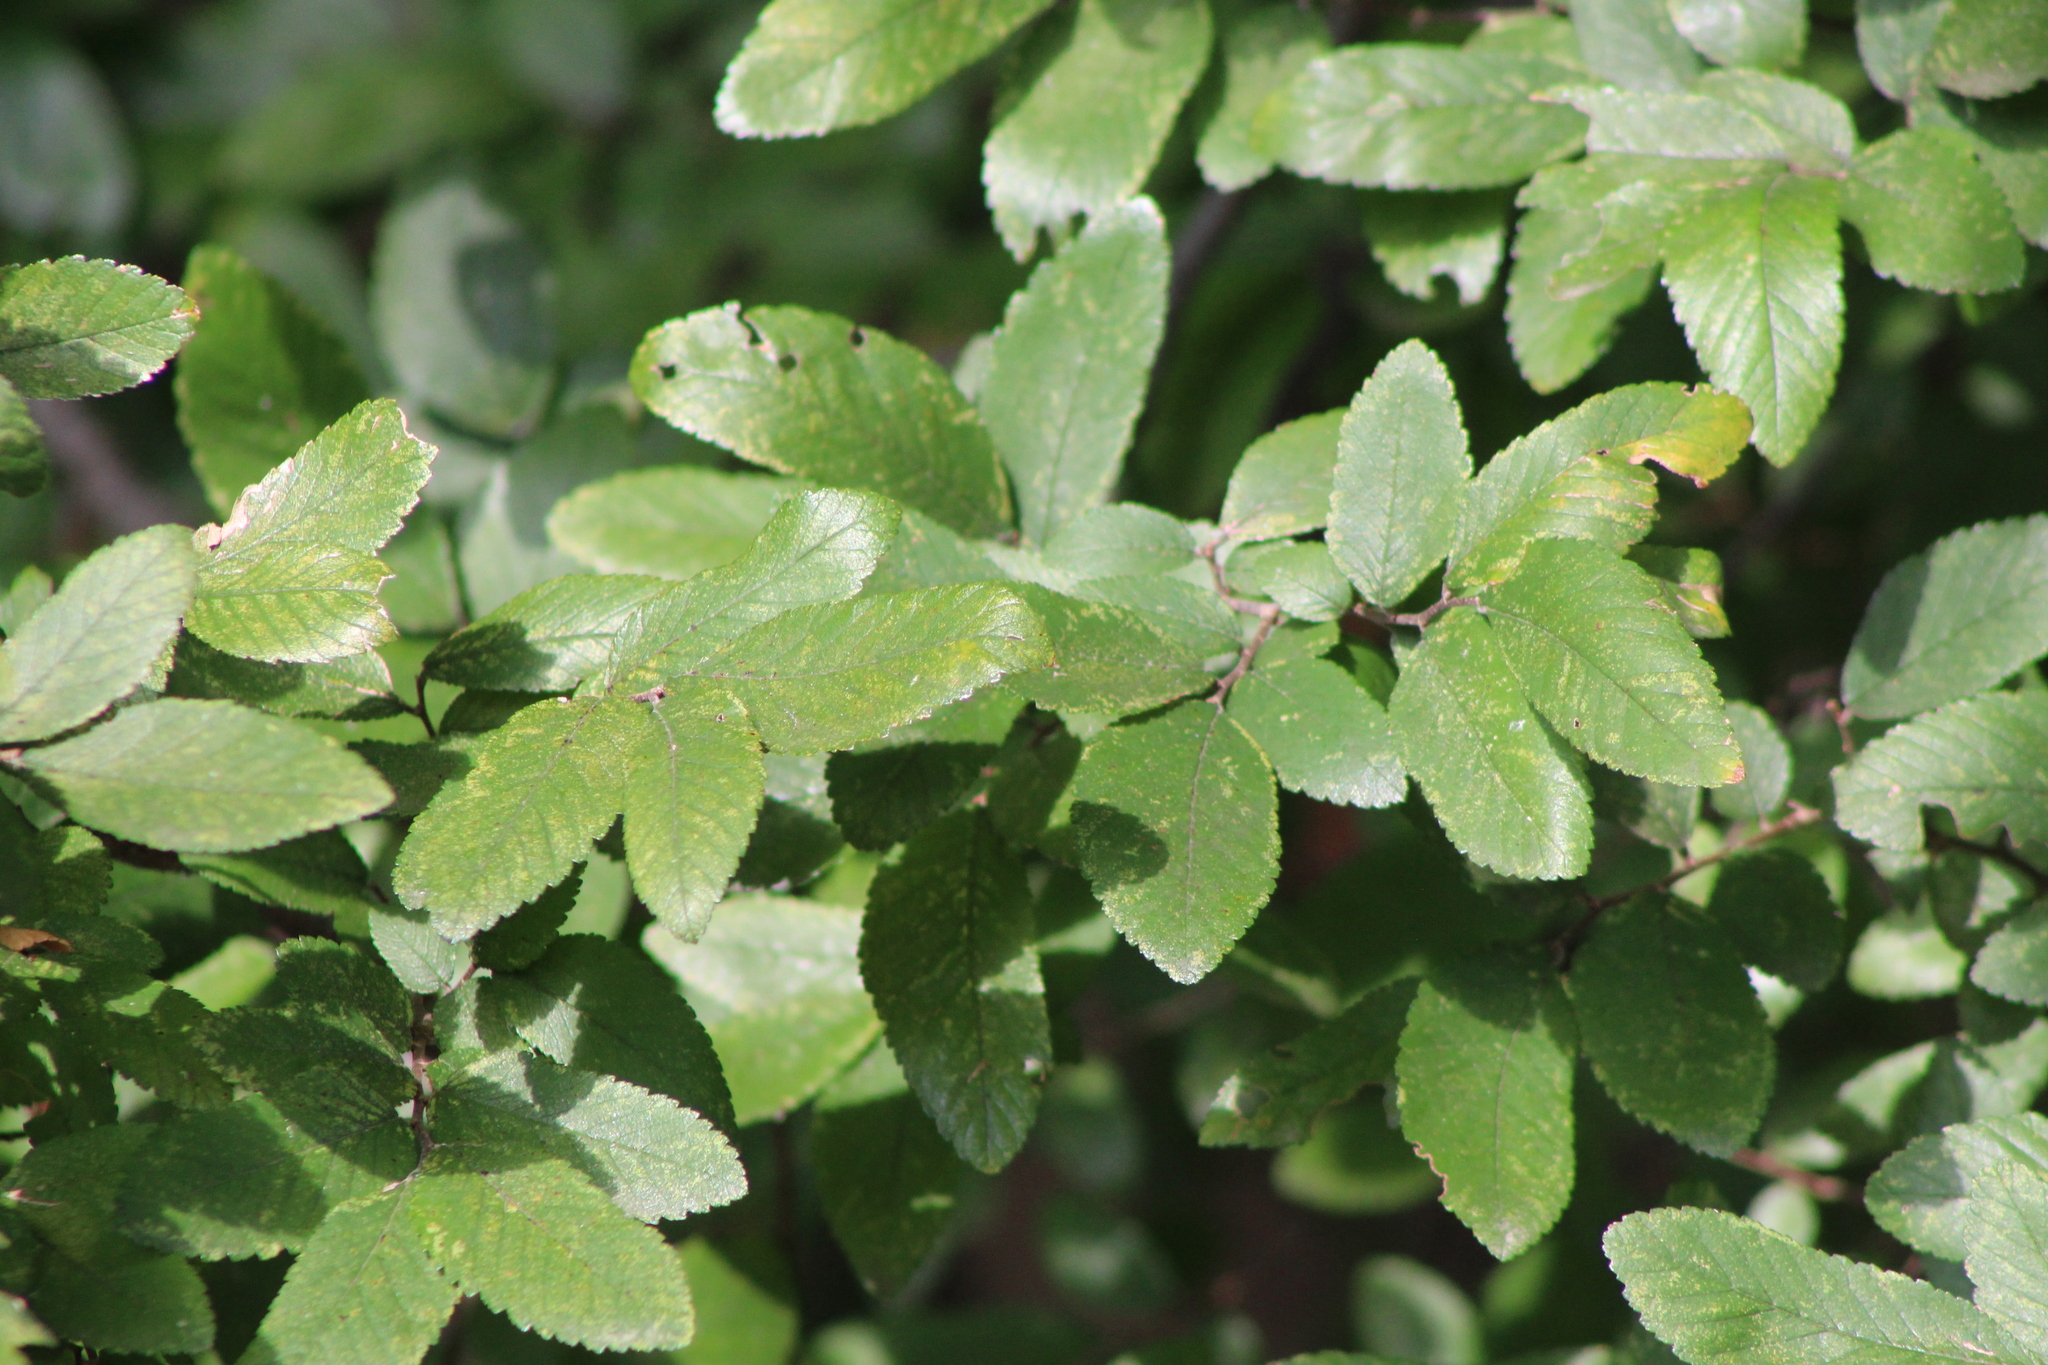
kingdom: Plantae
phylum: Tracheophyta
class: Magnoliopsida
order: Rosales
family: Ulmaceae
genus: Ulmus
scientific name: Ulmus crassifolia
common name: Basket elm
